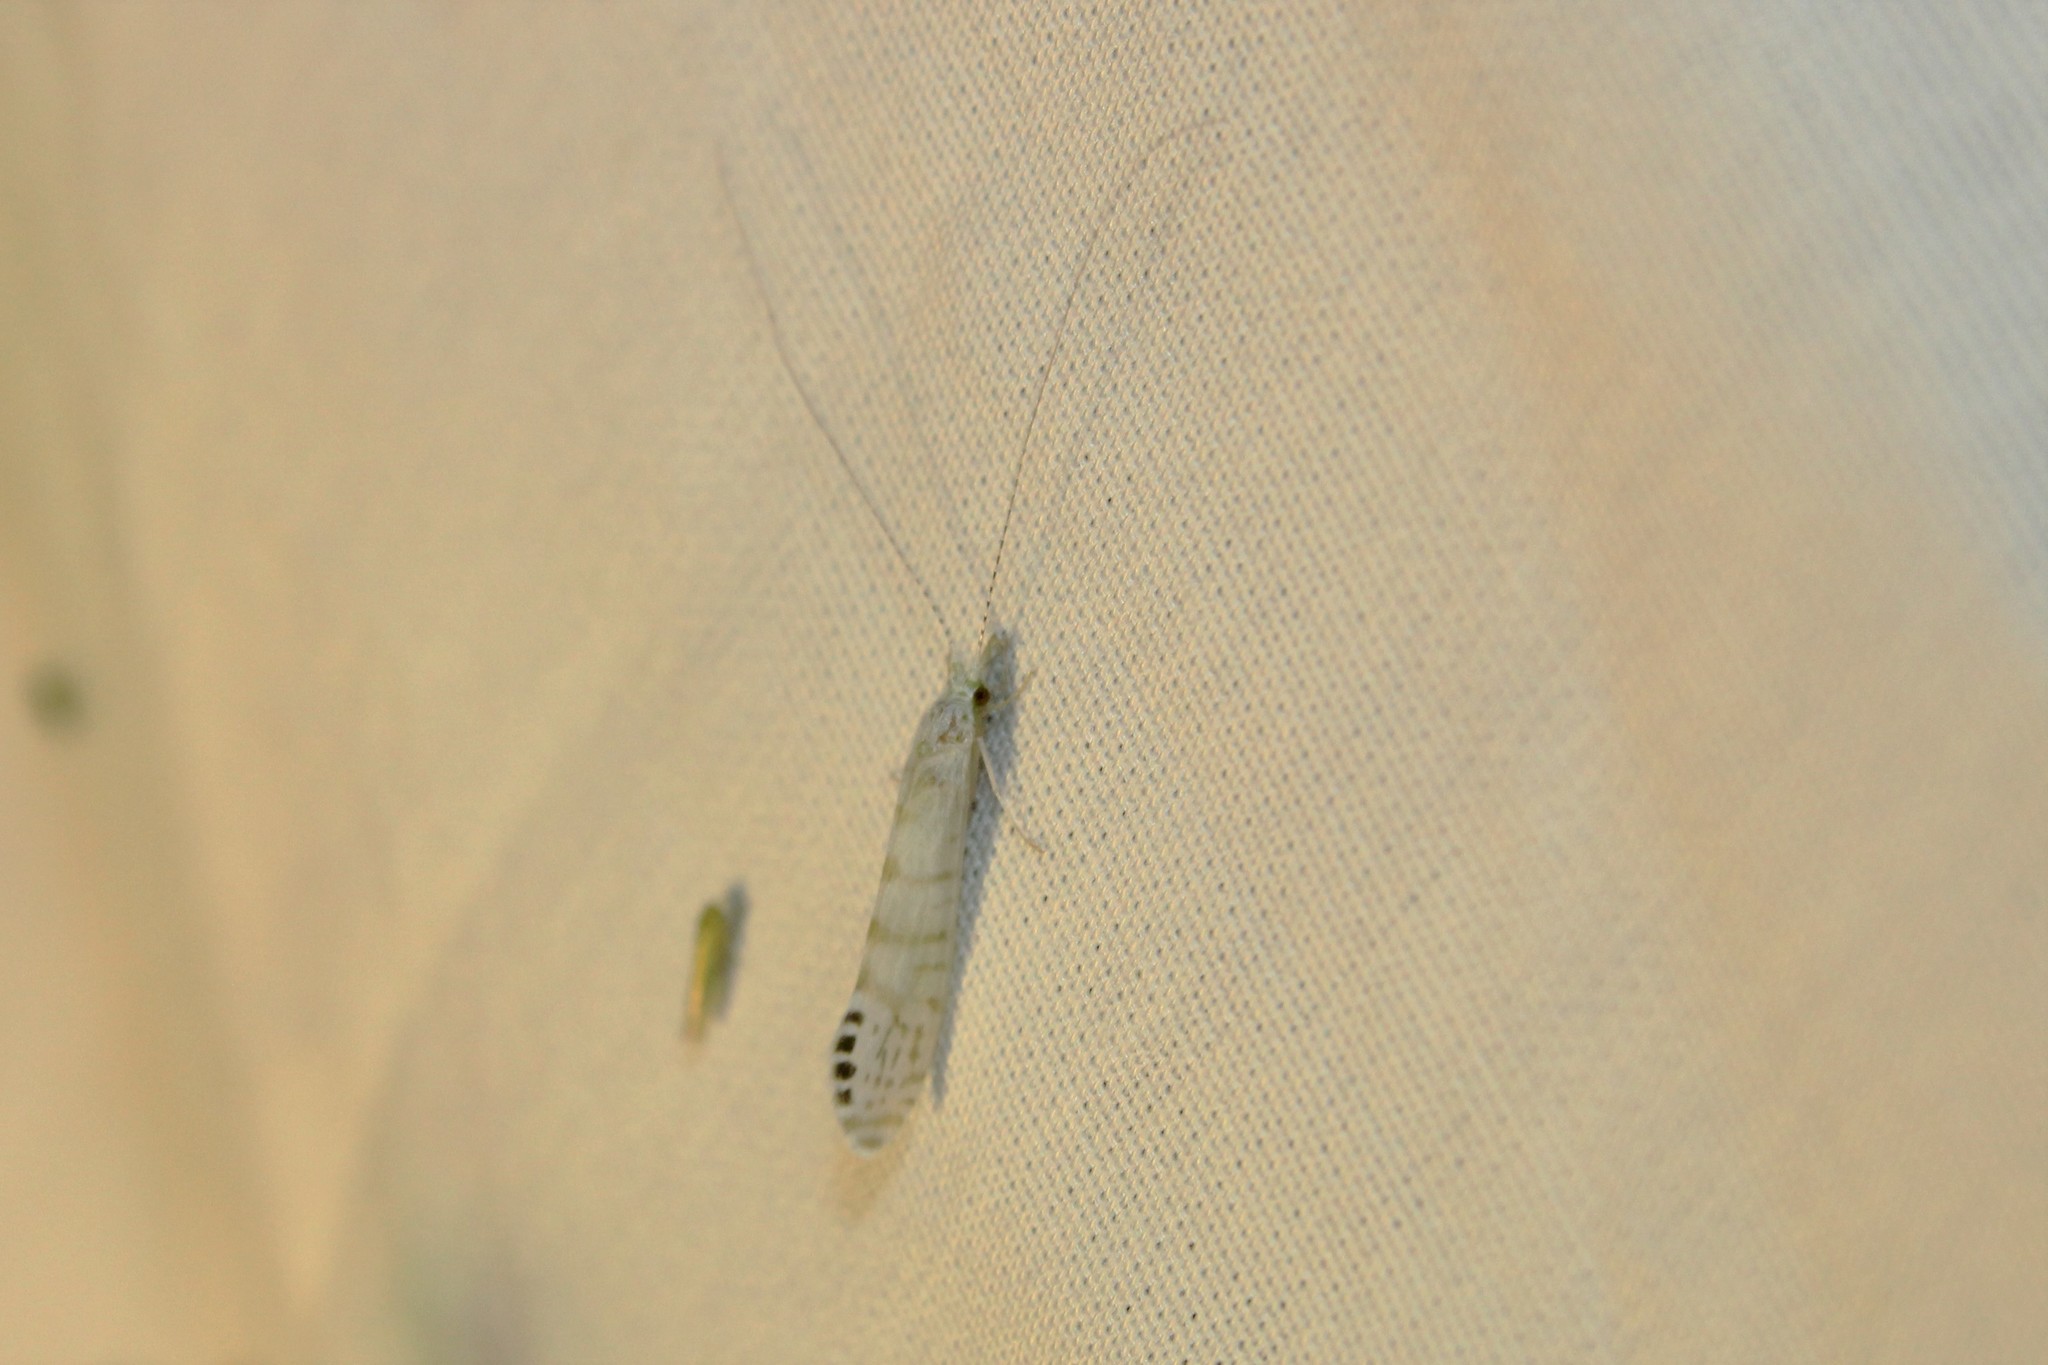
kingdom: Animalia
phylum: Arthropoda
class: Insecta
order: Trichoptera
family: Leptoceridae
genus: Nectopsyche
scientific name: Nectopsyche exquisita
